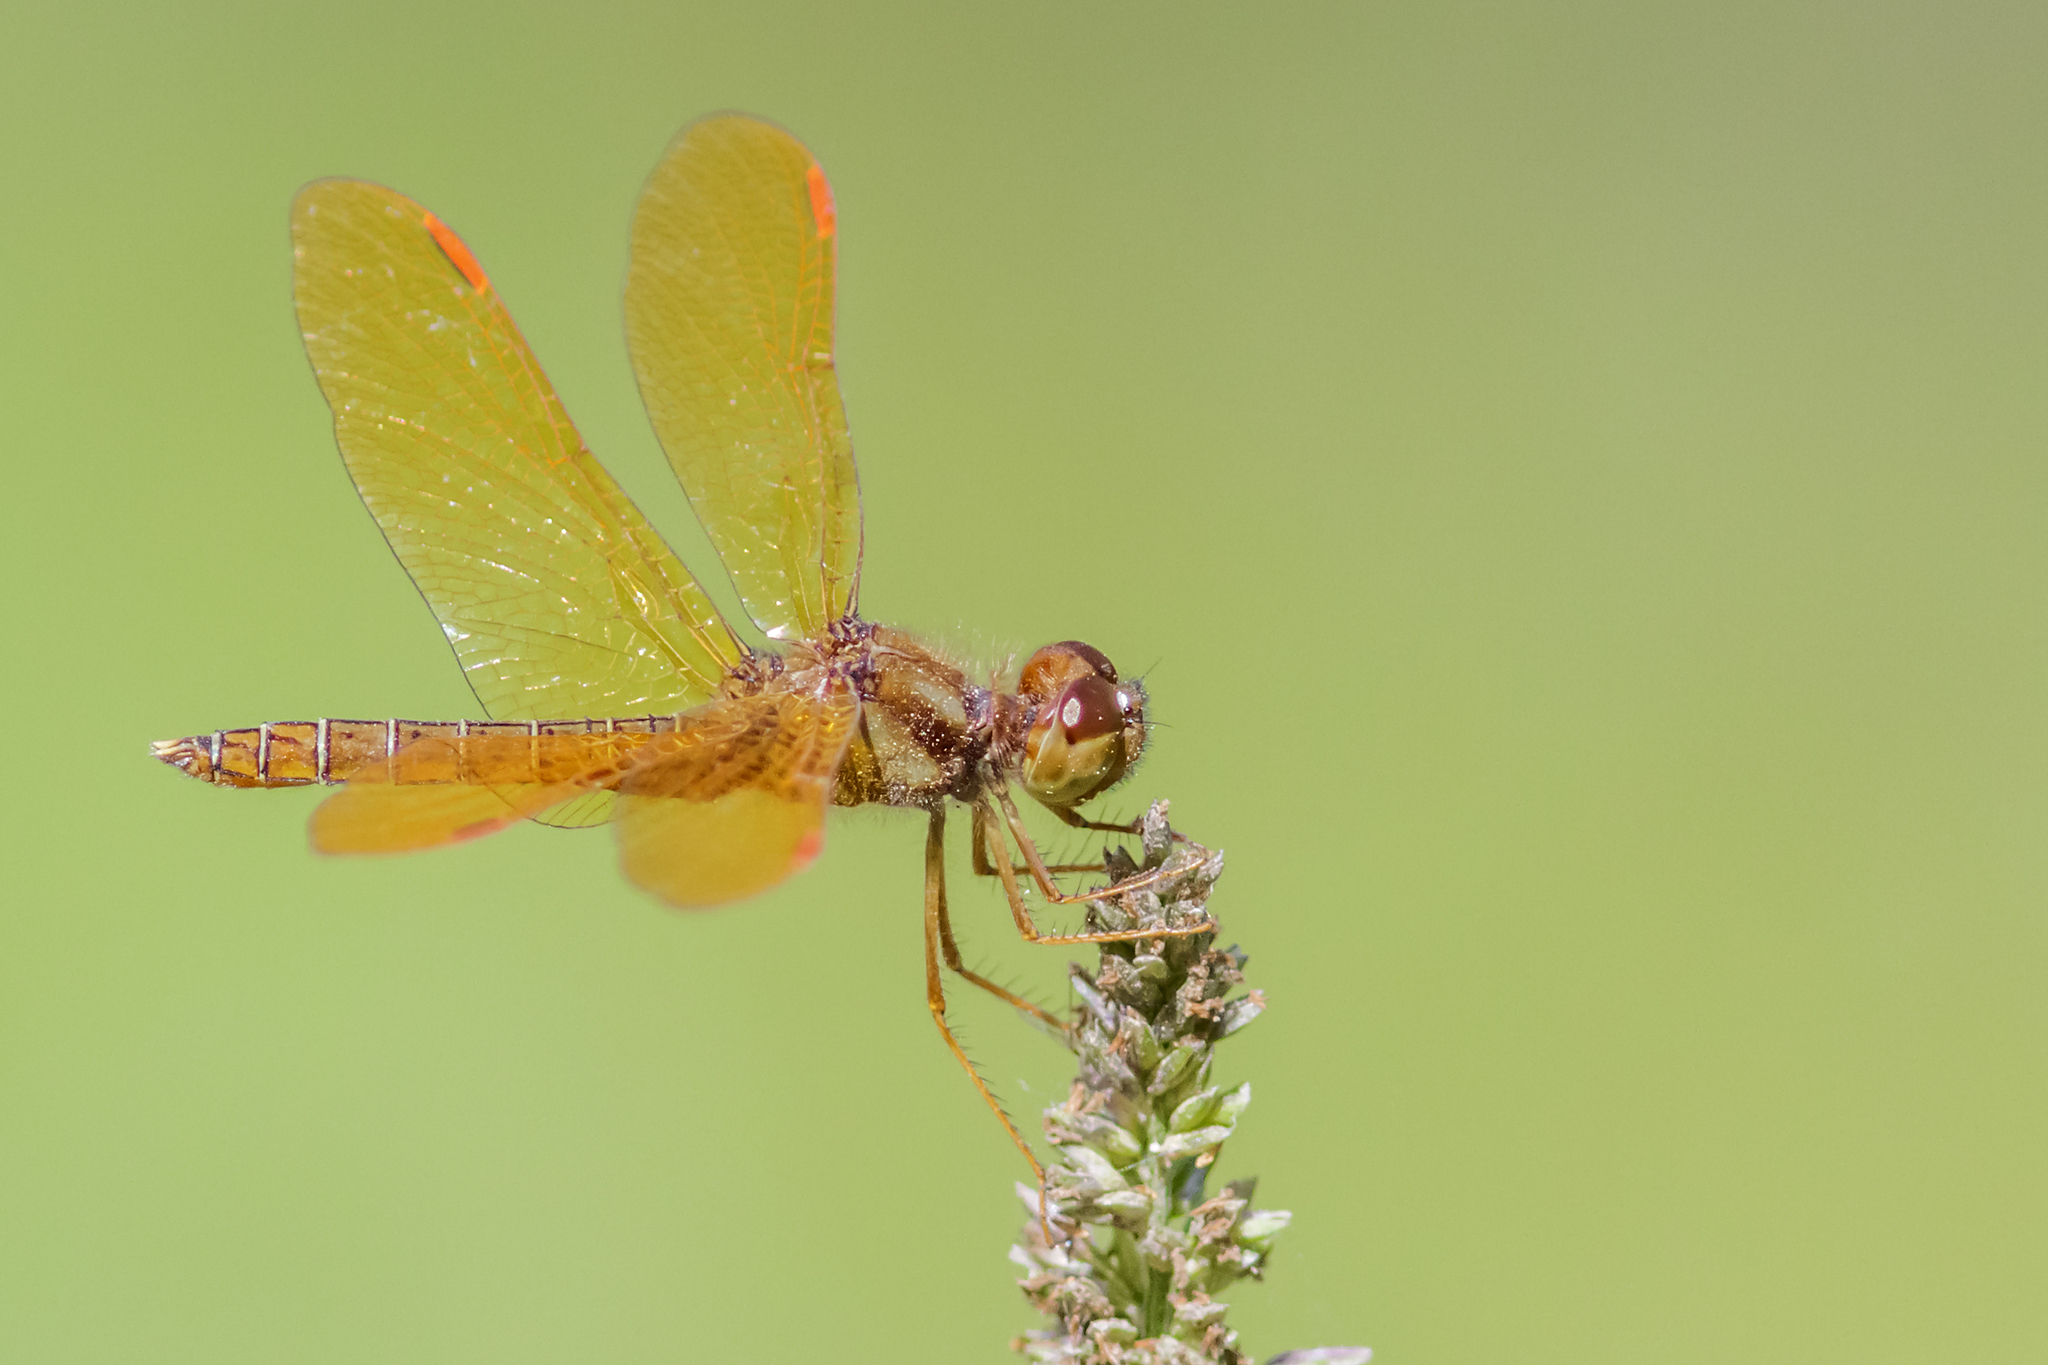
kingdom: Animalia
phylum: Arthropoda
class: Insecta
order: Odonata
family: Libellulidae
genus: Perithemis
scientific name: Perithemis tenera
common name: Eastern amberwing
